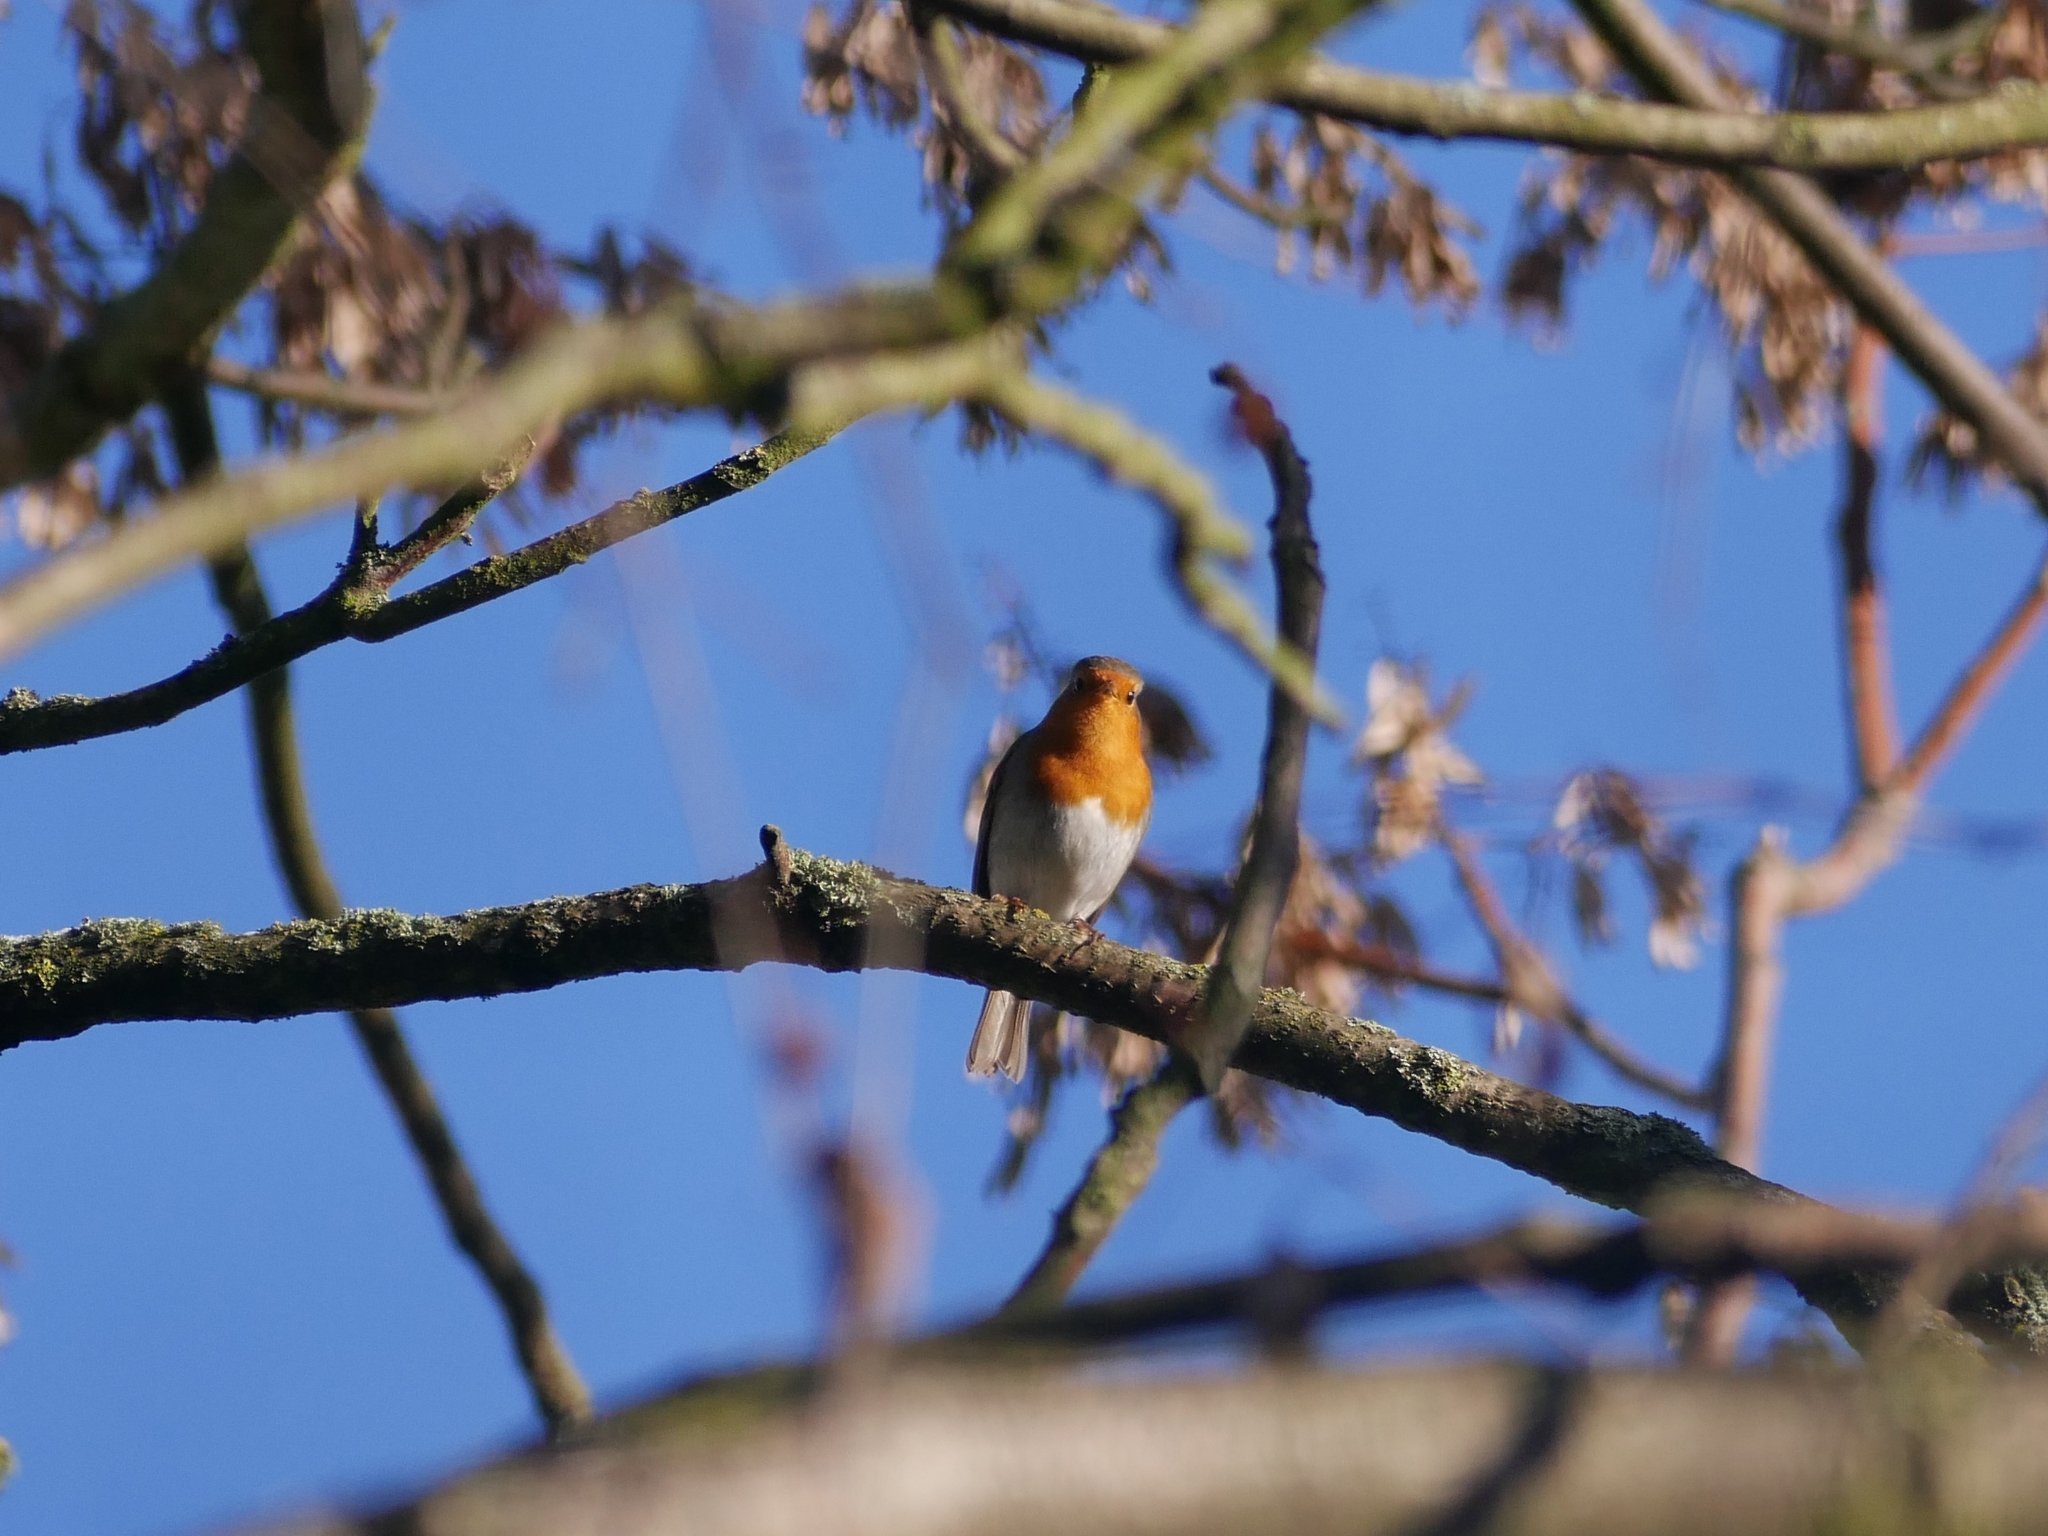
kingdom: Animalia
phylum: Chordata
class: Aves
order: Passeriformes
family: Muscicapidae
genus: Erithacus
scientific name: Erithacus rubecula
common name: European robin
